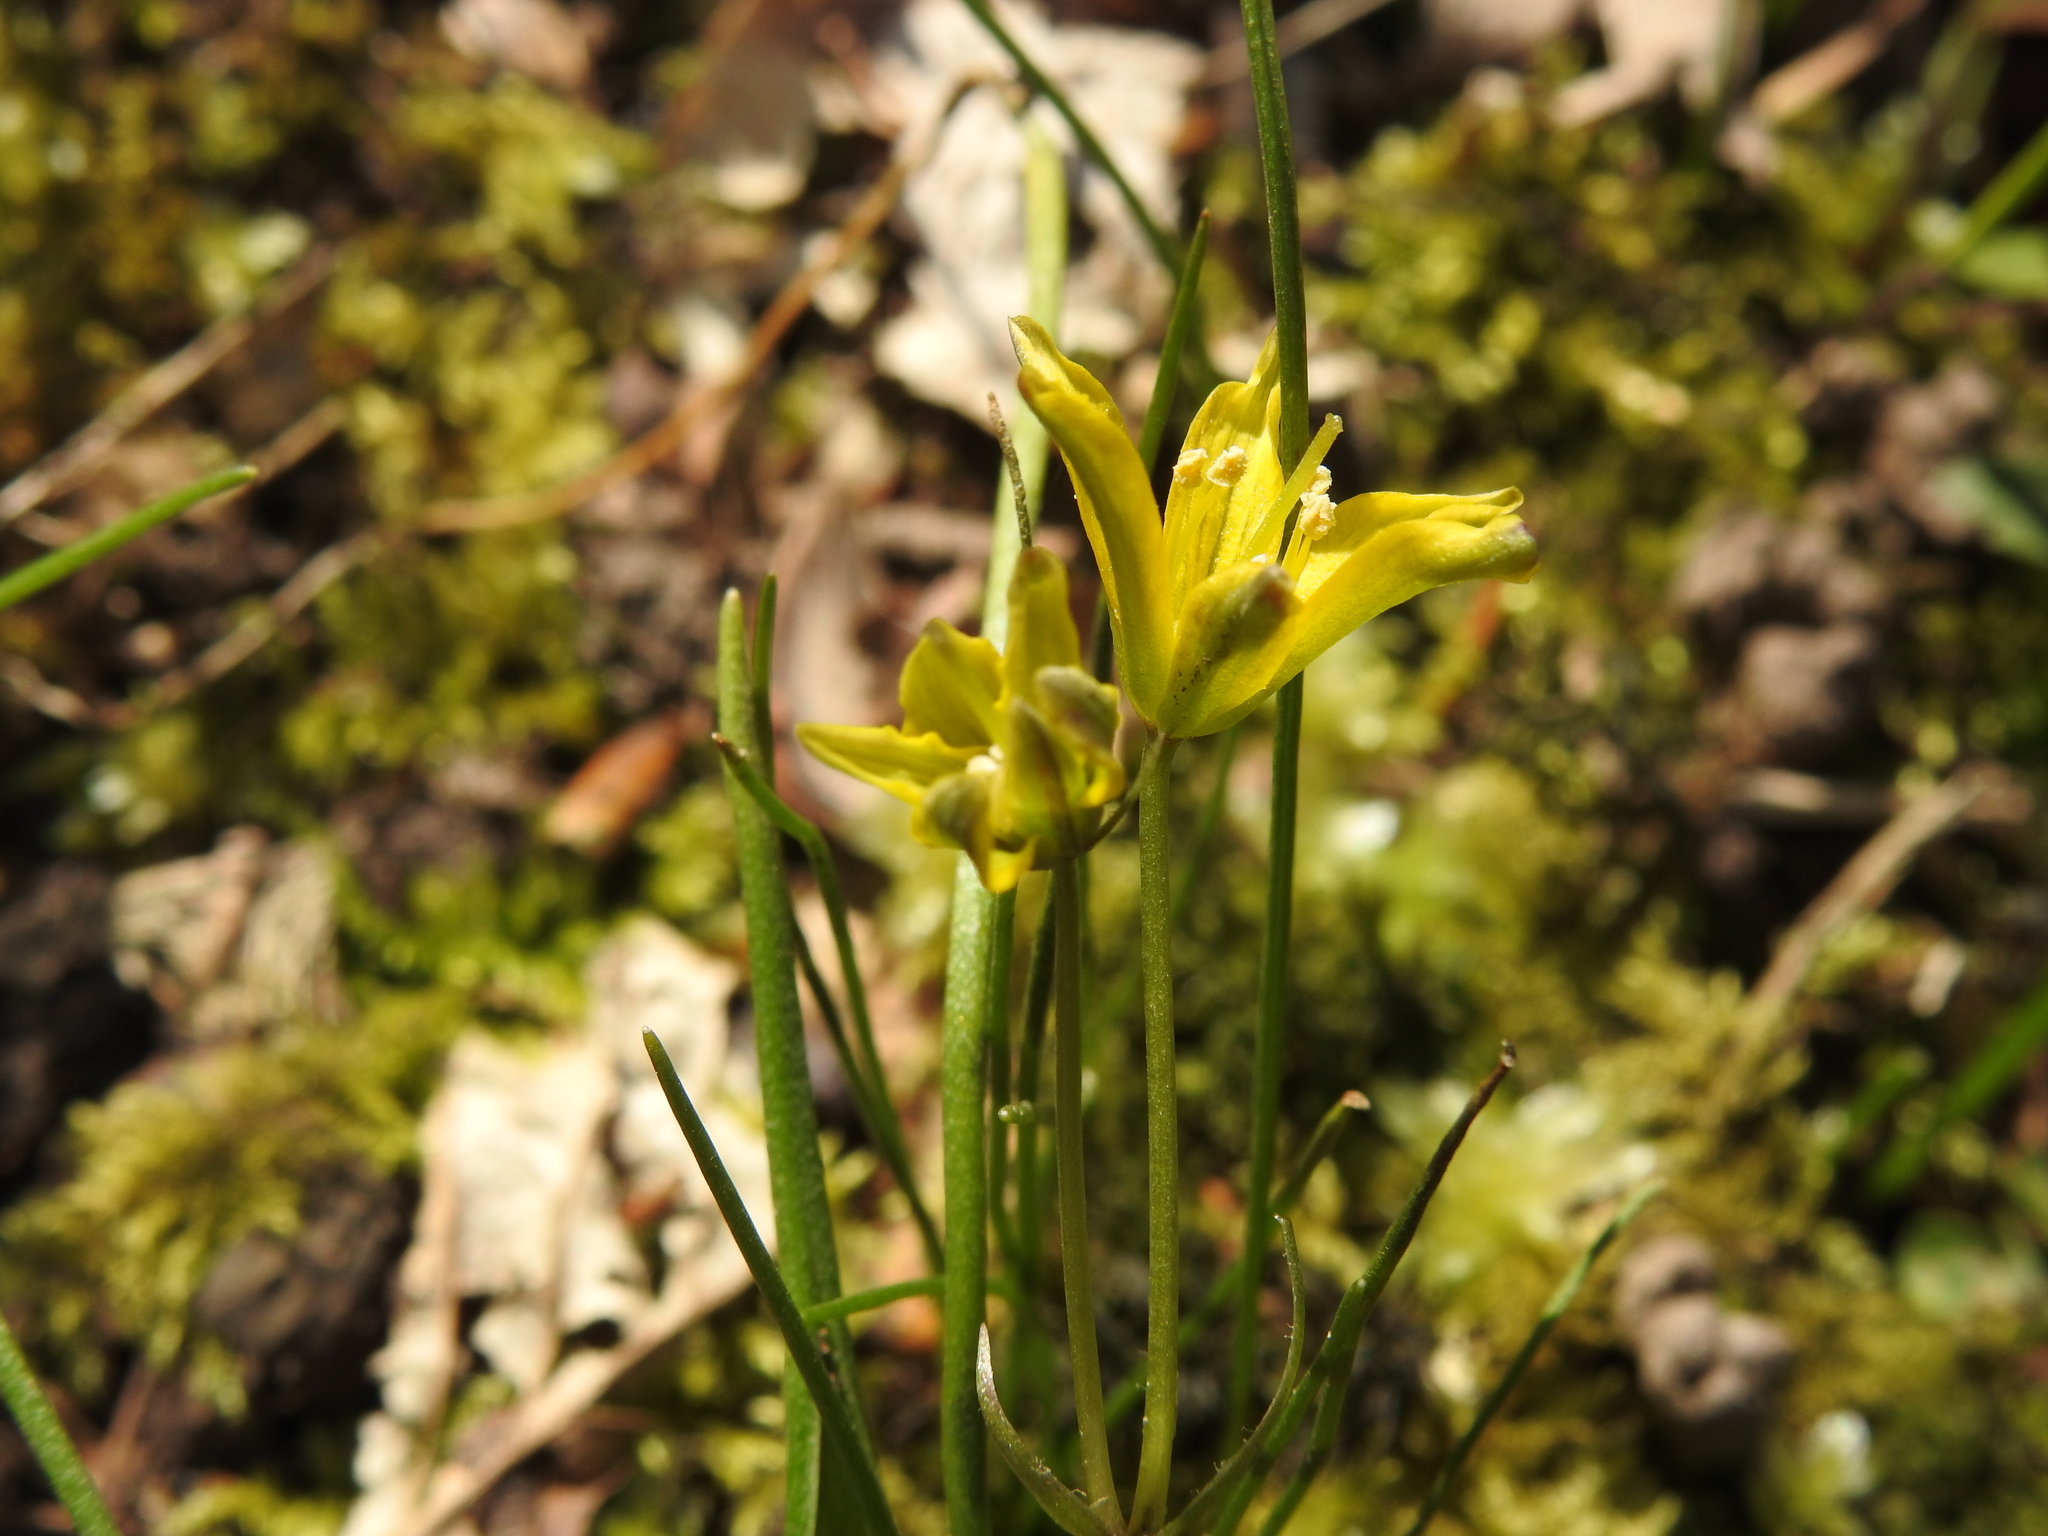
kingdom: Plantae
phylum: Tracheophyta
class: Liliopsida
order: Liliales
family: Liliaceae
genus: Gagea
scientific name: Gagea spathacea
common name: Belgian gagea
